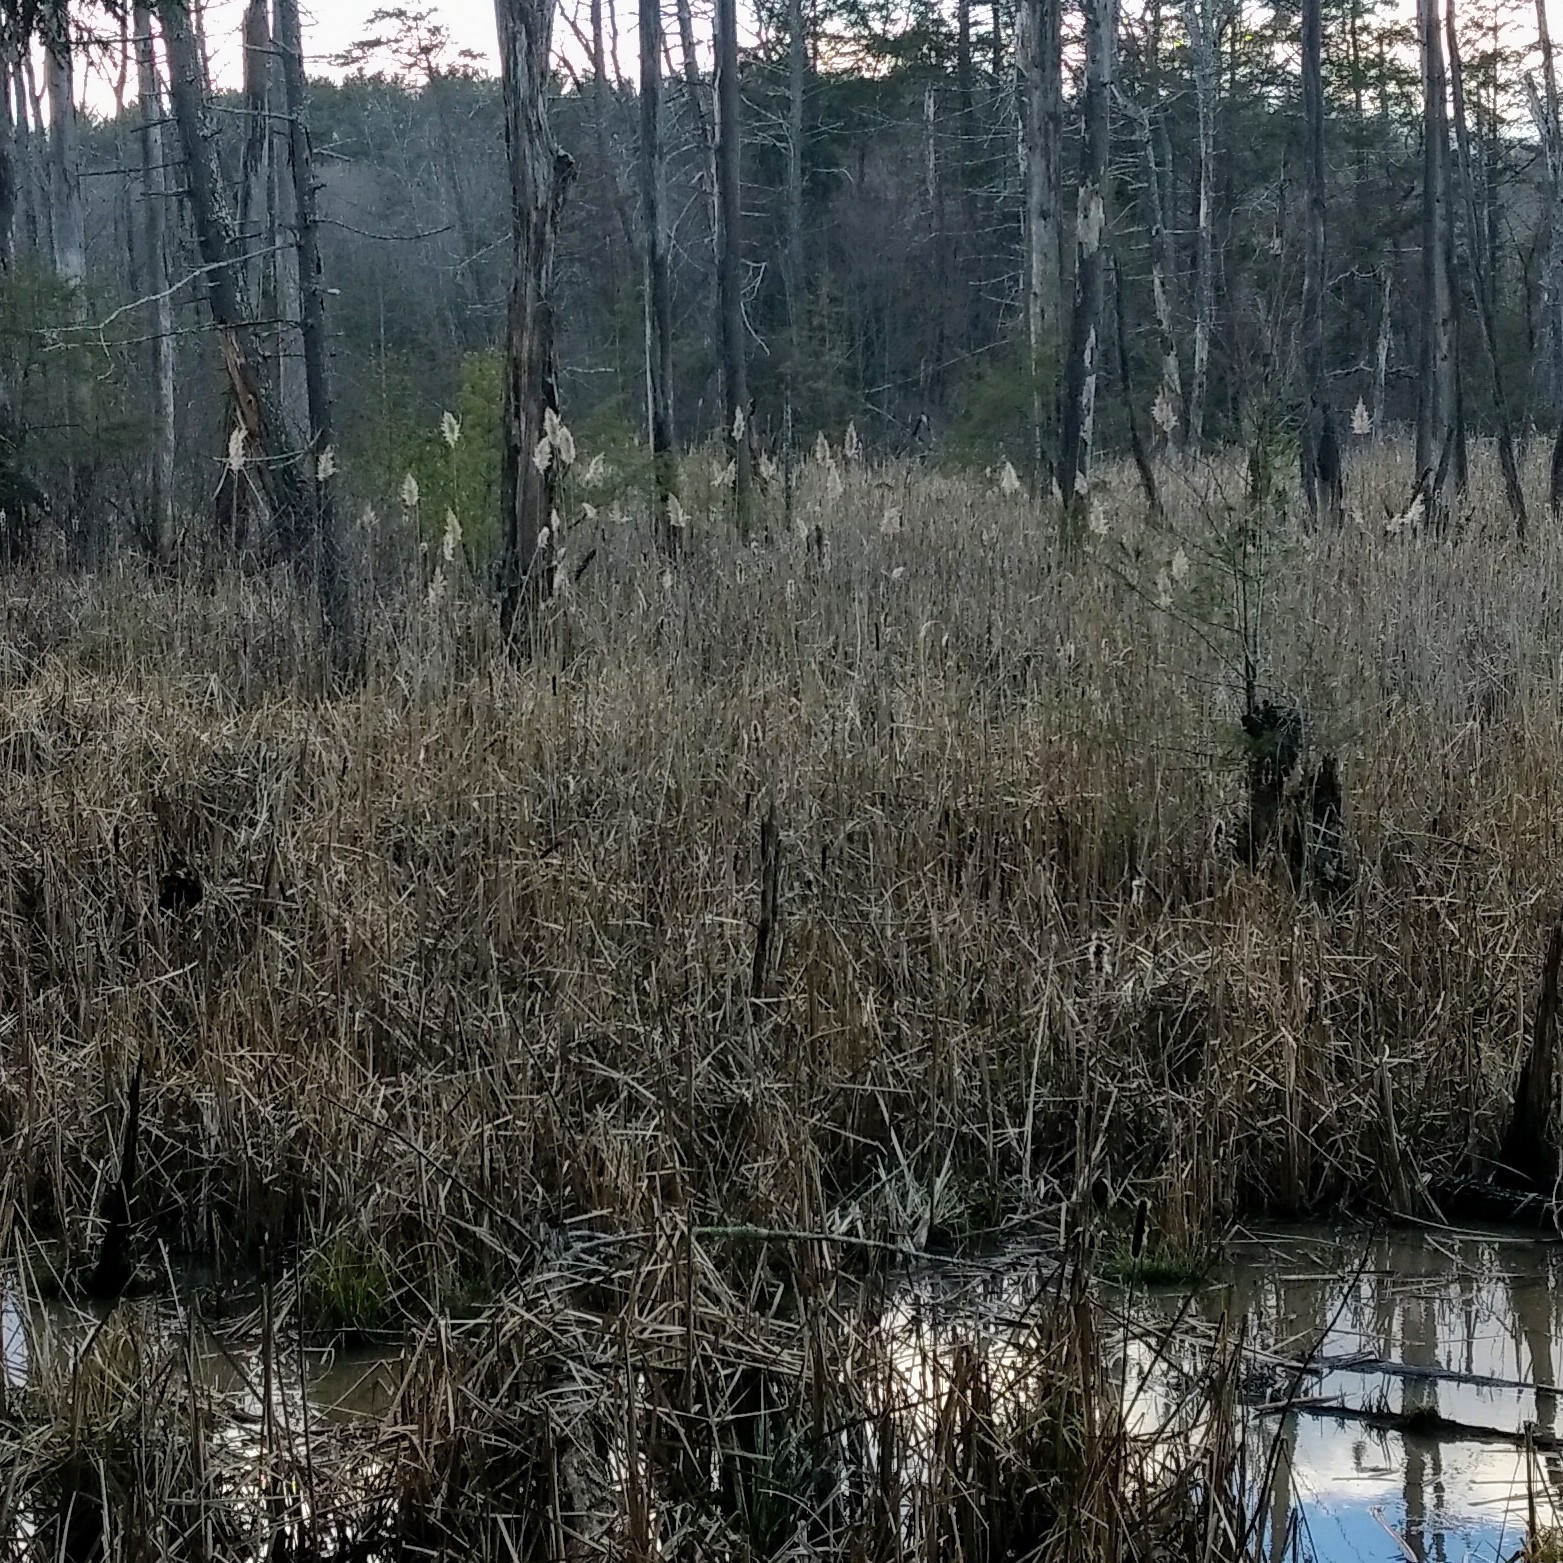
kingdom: Plantae
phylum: Tracheophyta
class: Liliopsida
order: Poales
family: Poaceae
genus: Phragmites
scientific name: Phragmites australis
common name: Common reed
